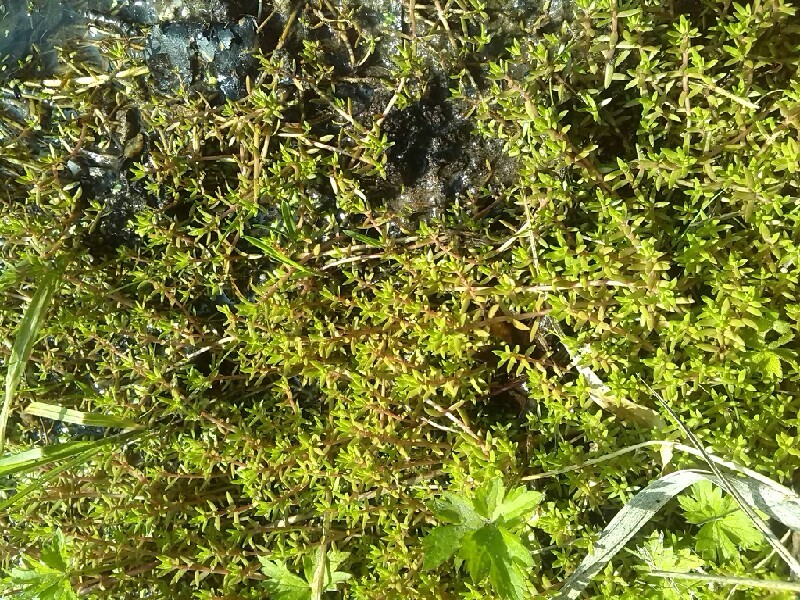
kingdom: Plantae
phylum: Tracheophyta
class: Magnoliopsida
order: Saxifragales
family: Crassulaceae
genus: Crassula
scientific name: Crassula helmsii
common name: New zealand pigmyweed
